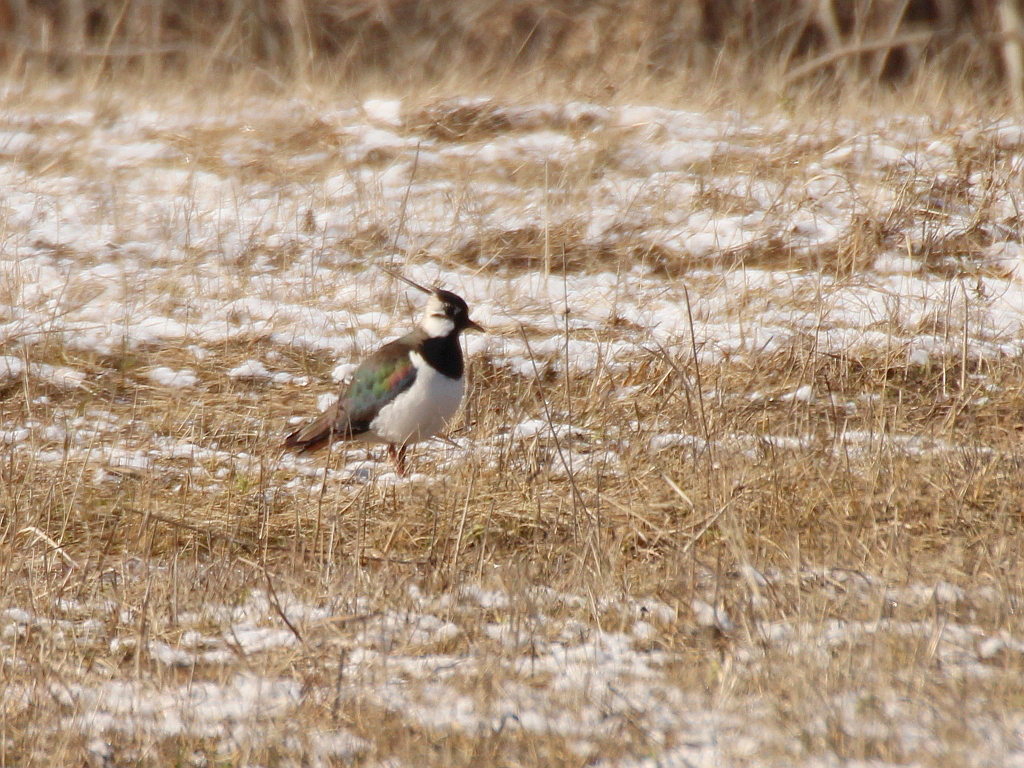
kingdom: Animalia
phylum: Chordata
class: Aves
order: Charadriiformes
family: Charadriidae
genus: Vanellus
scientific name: Vanellus vanellus
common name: Northern lapwing
